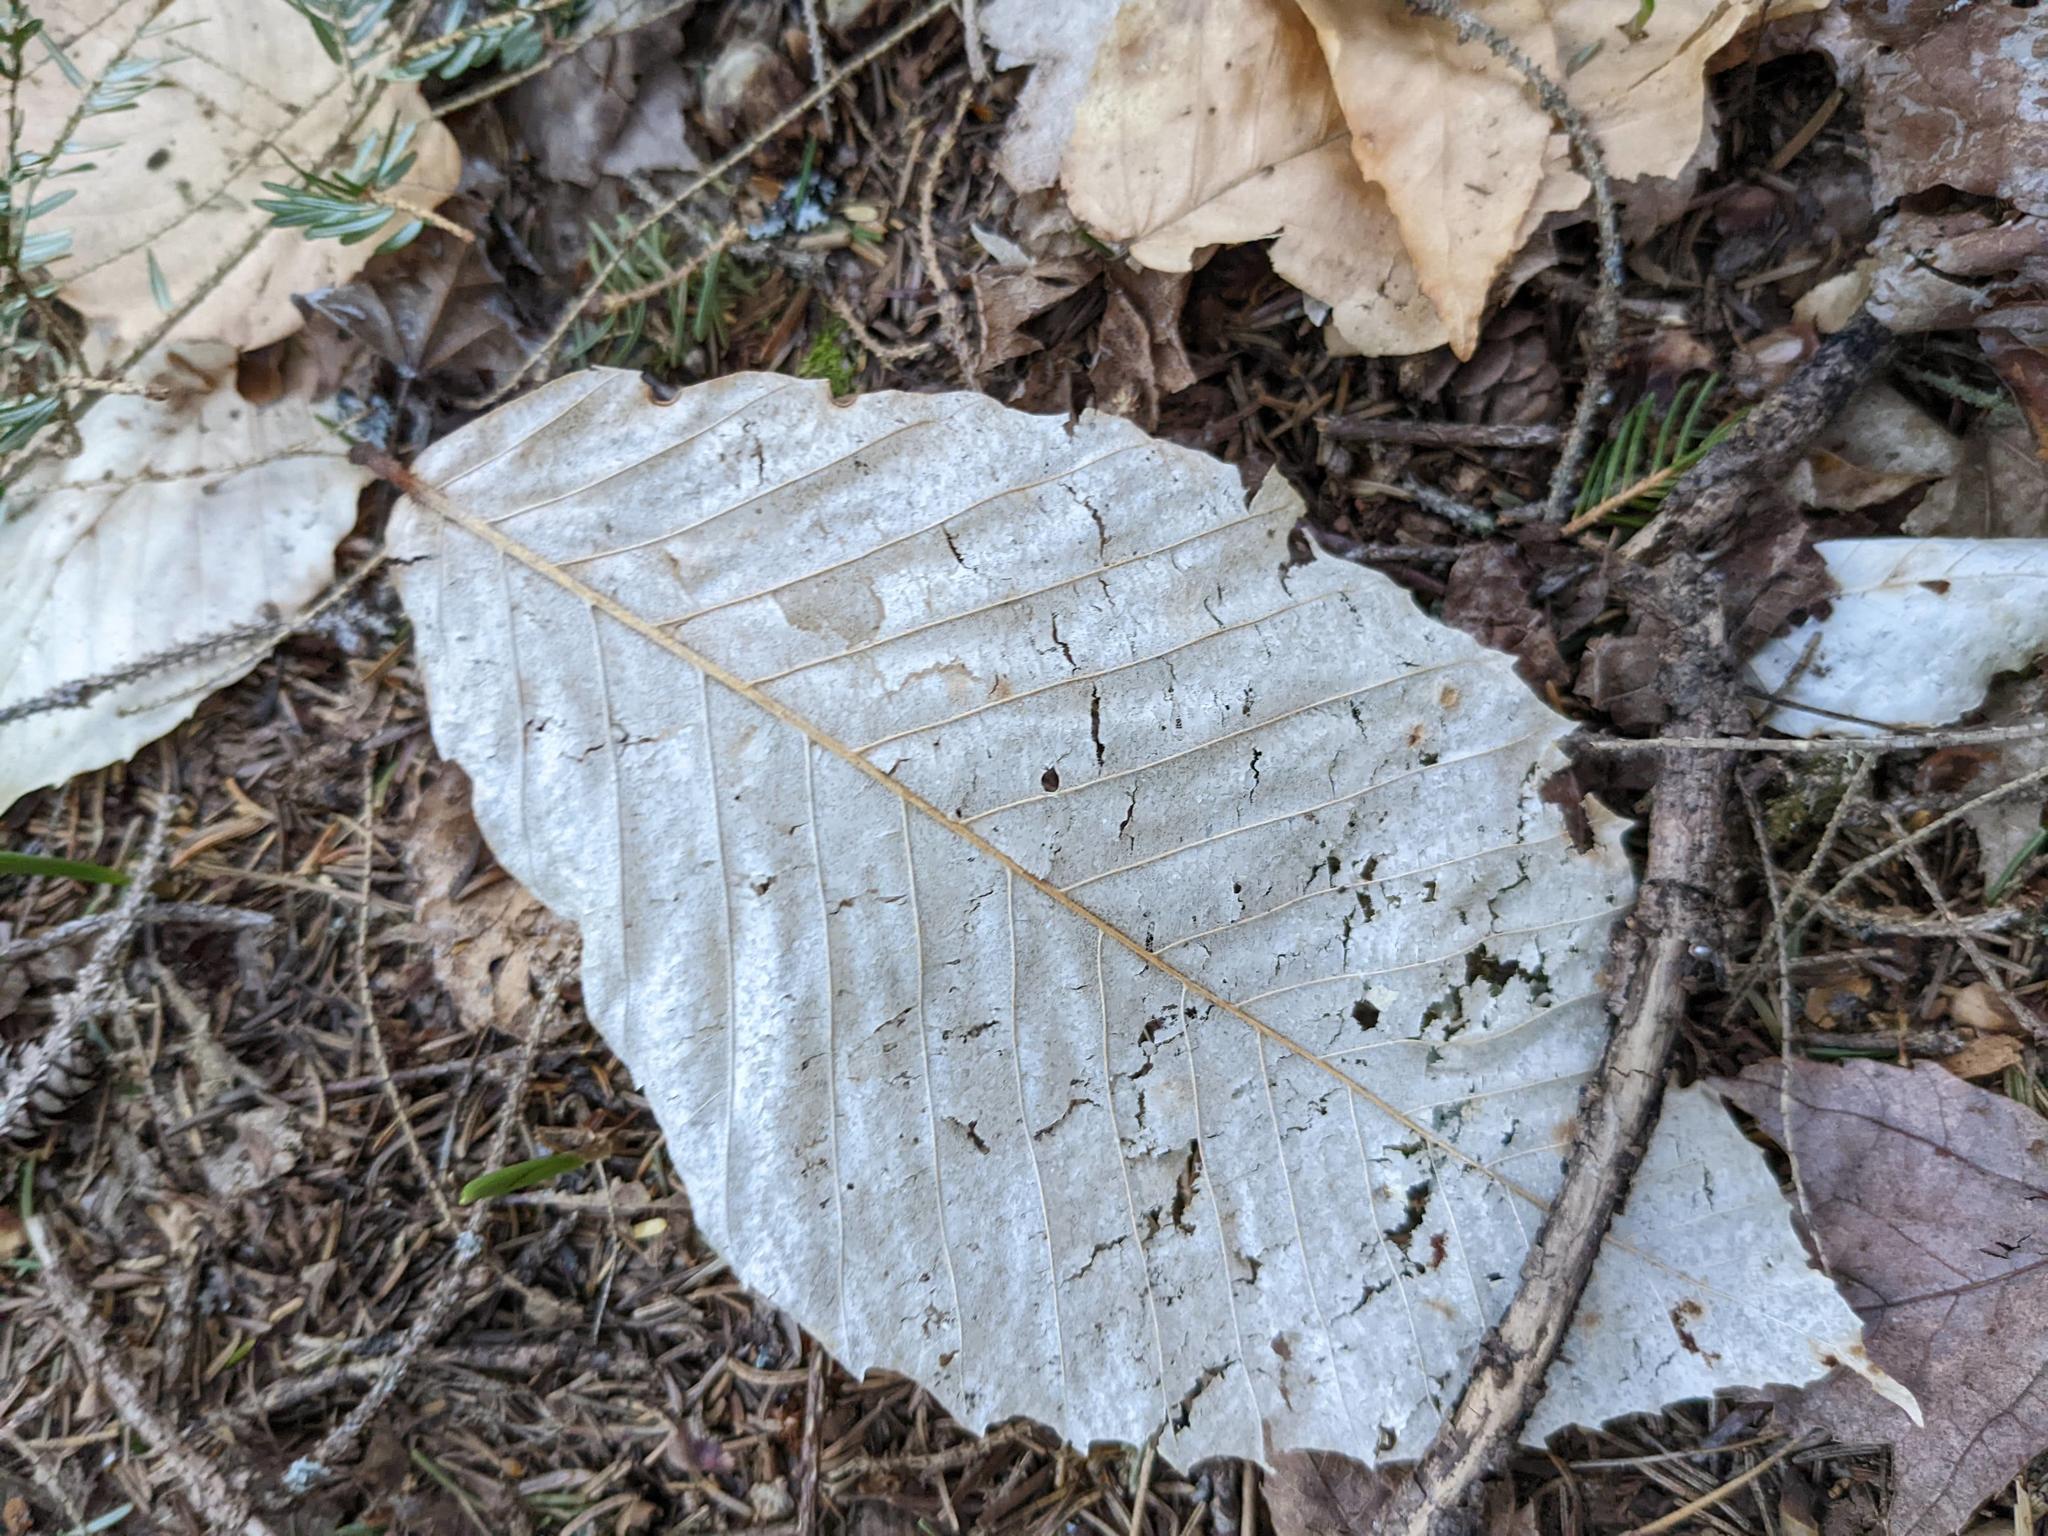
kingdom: Plantae
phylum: Tracheophyta
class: Magnoliopsida
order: Fagales
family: Fagaceae
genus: Fagus
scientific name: Fagus grandifolia
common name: American beech
